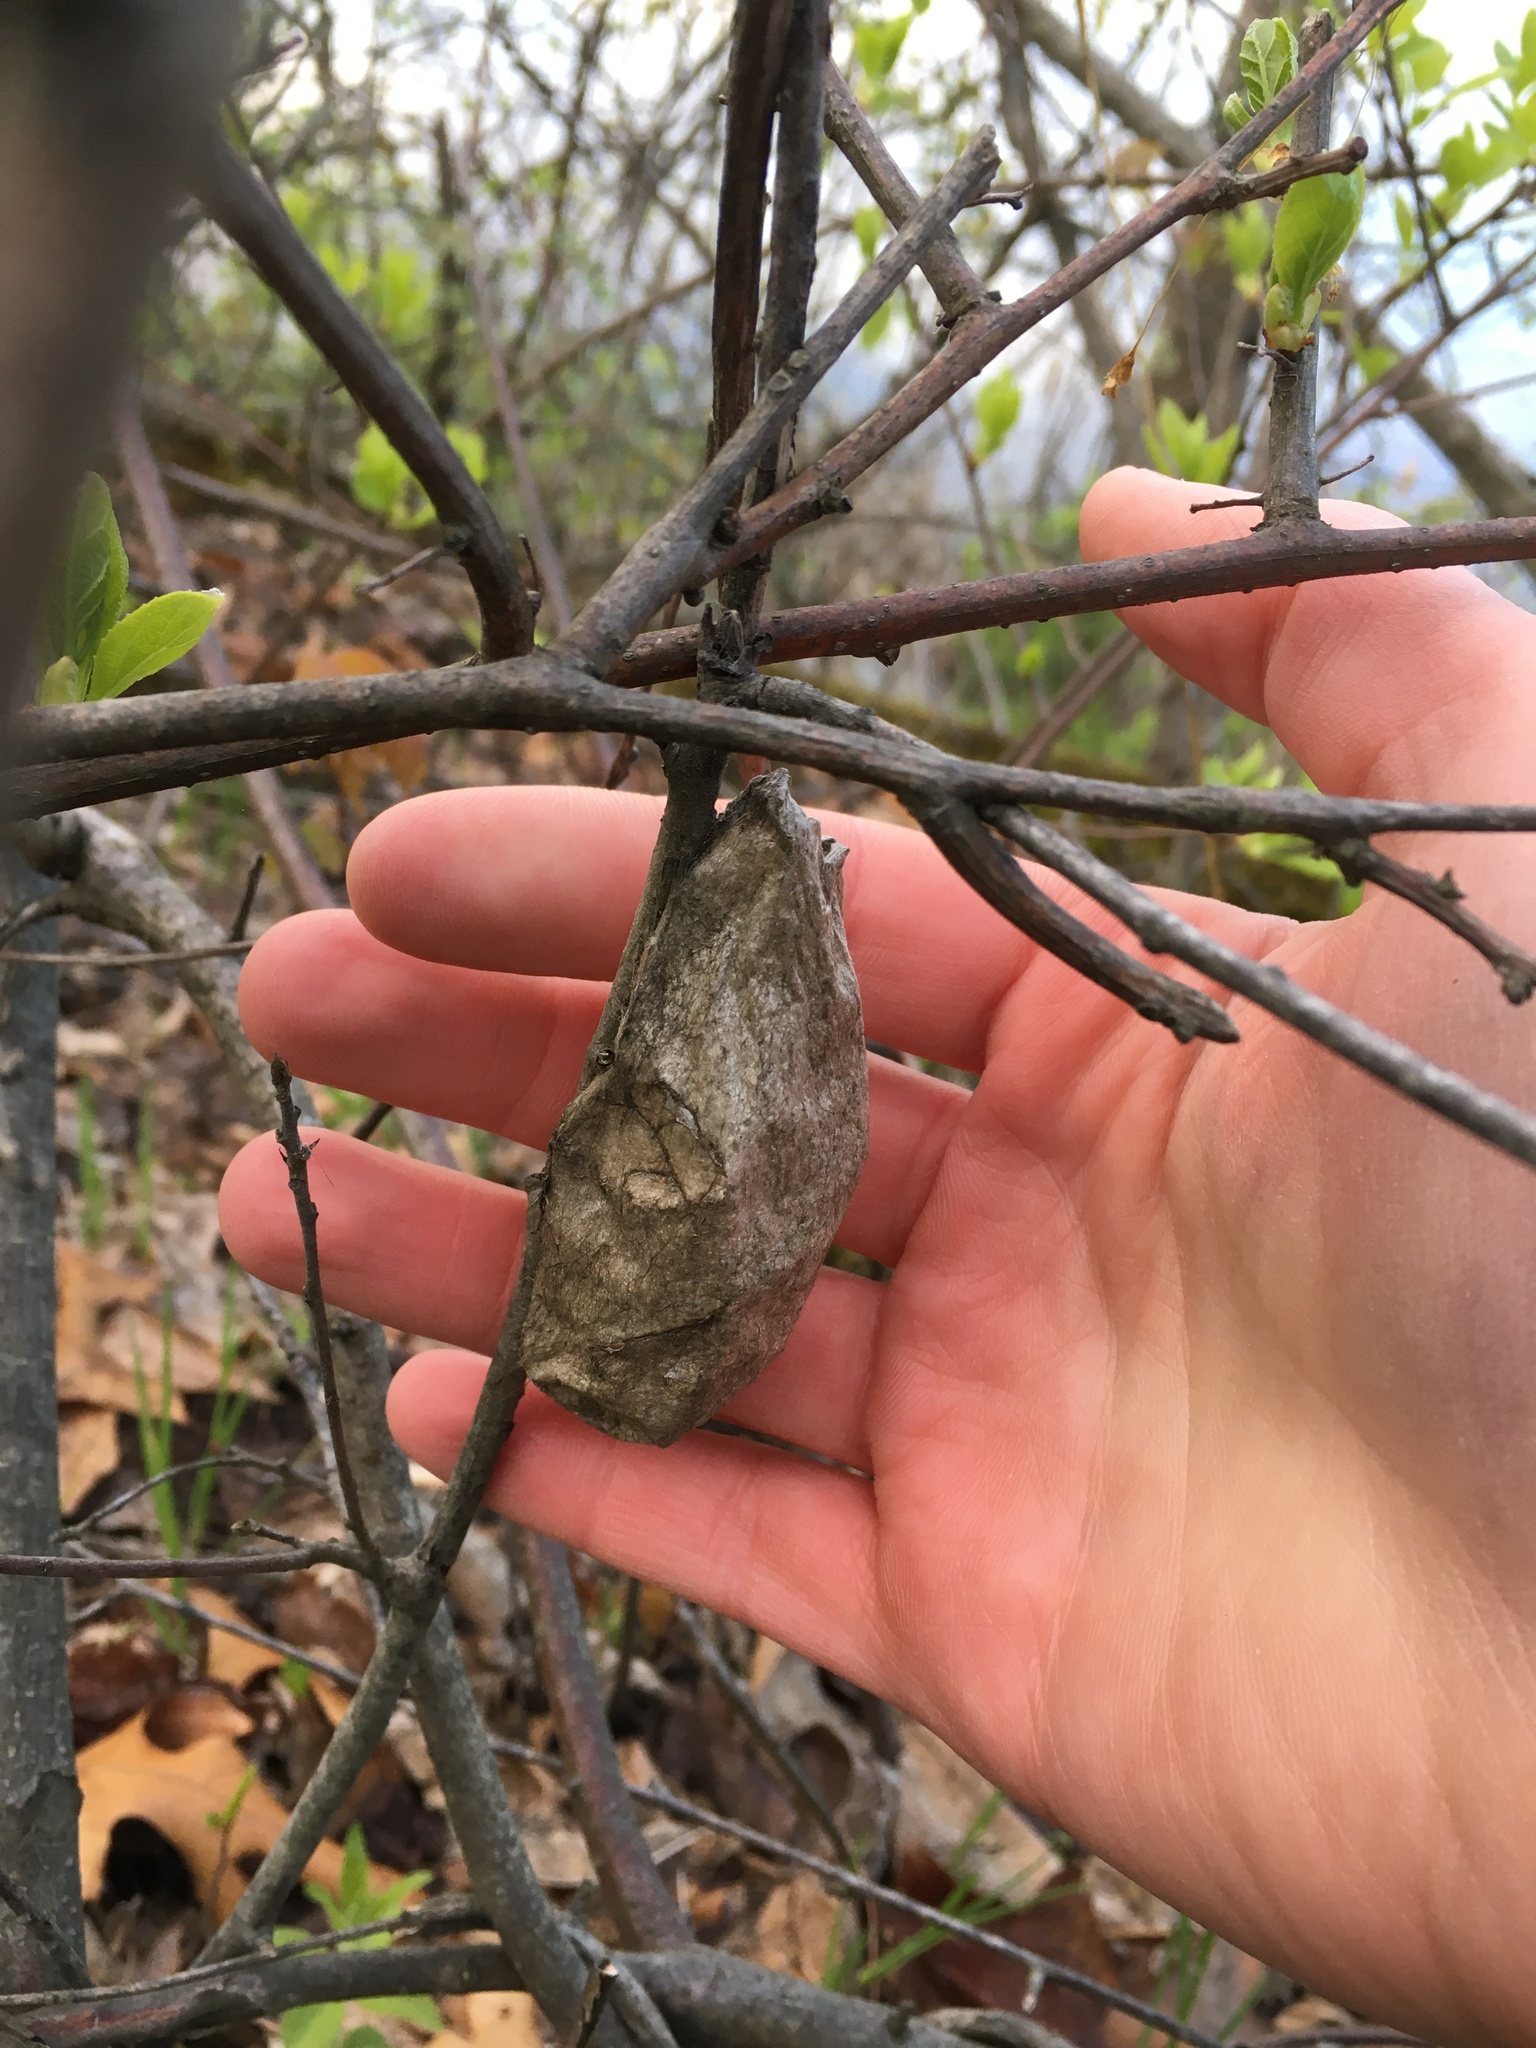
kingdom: Animalia
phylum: Arthropoda
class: Insecta
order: Lepidoptera
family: Saturniidae
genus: Hyalophora
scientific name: Hyalophora cecropia
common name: Cecropia silkmoth
